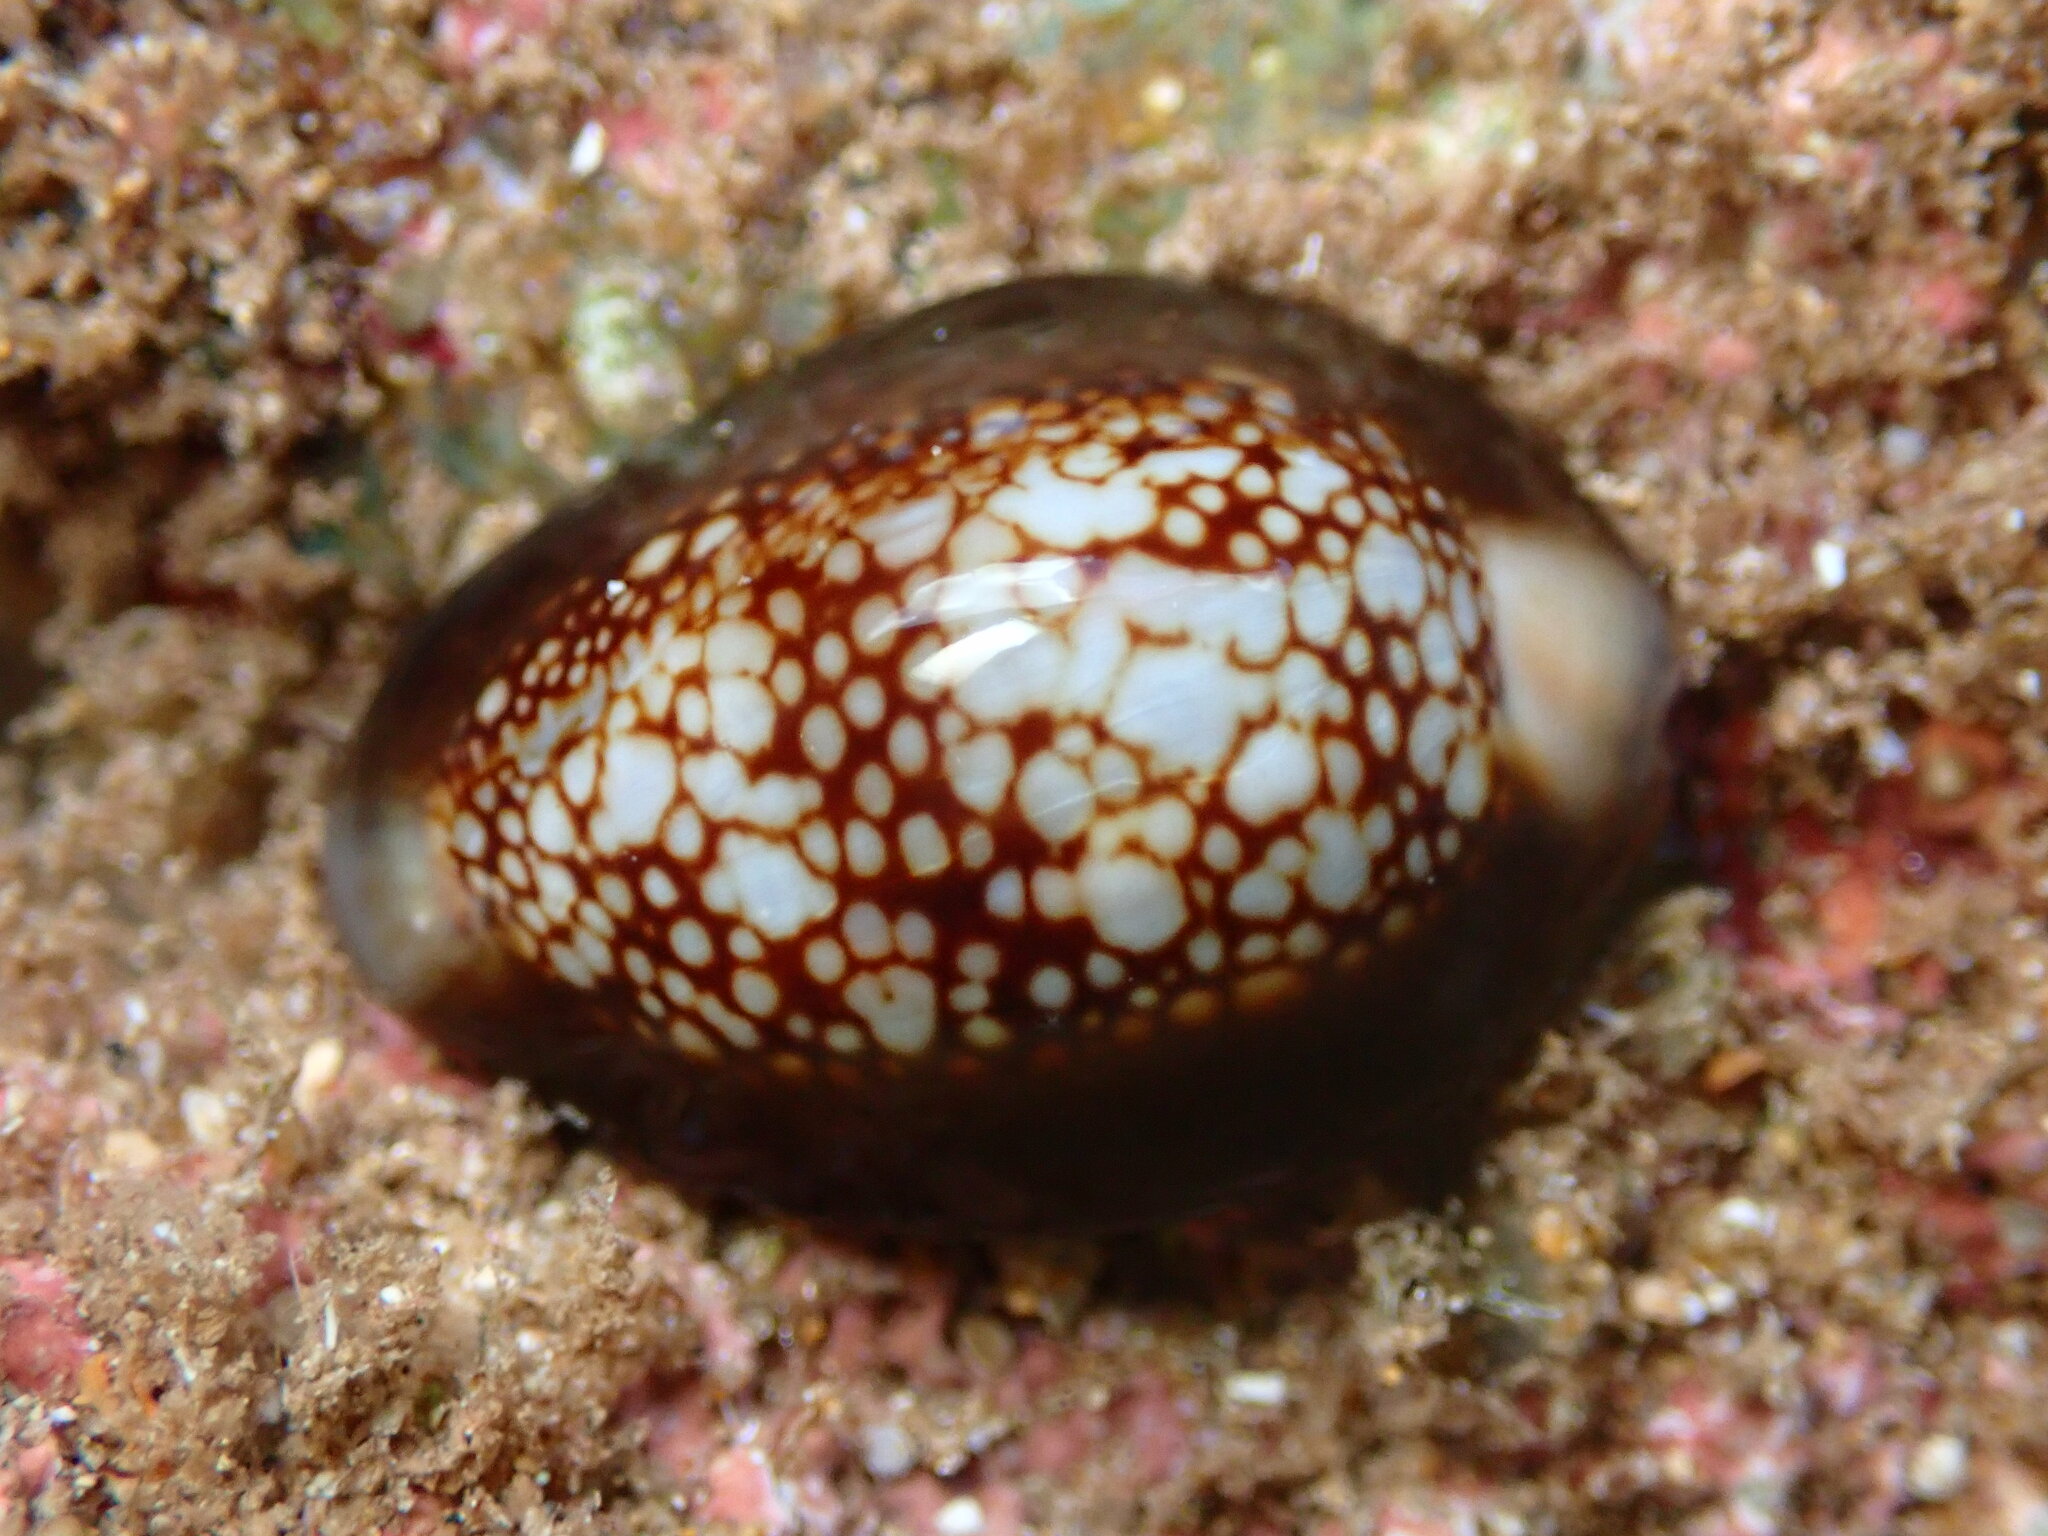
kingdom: Animalia
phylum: Mollusca
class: Gastropoda
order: Littorinimorpha
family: Cypraeidae
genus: Monetaria
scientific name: Monetaria caputophidii
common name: Snake's head cowry
